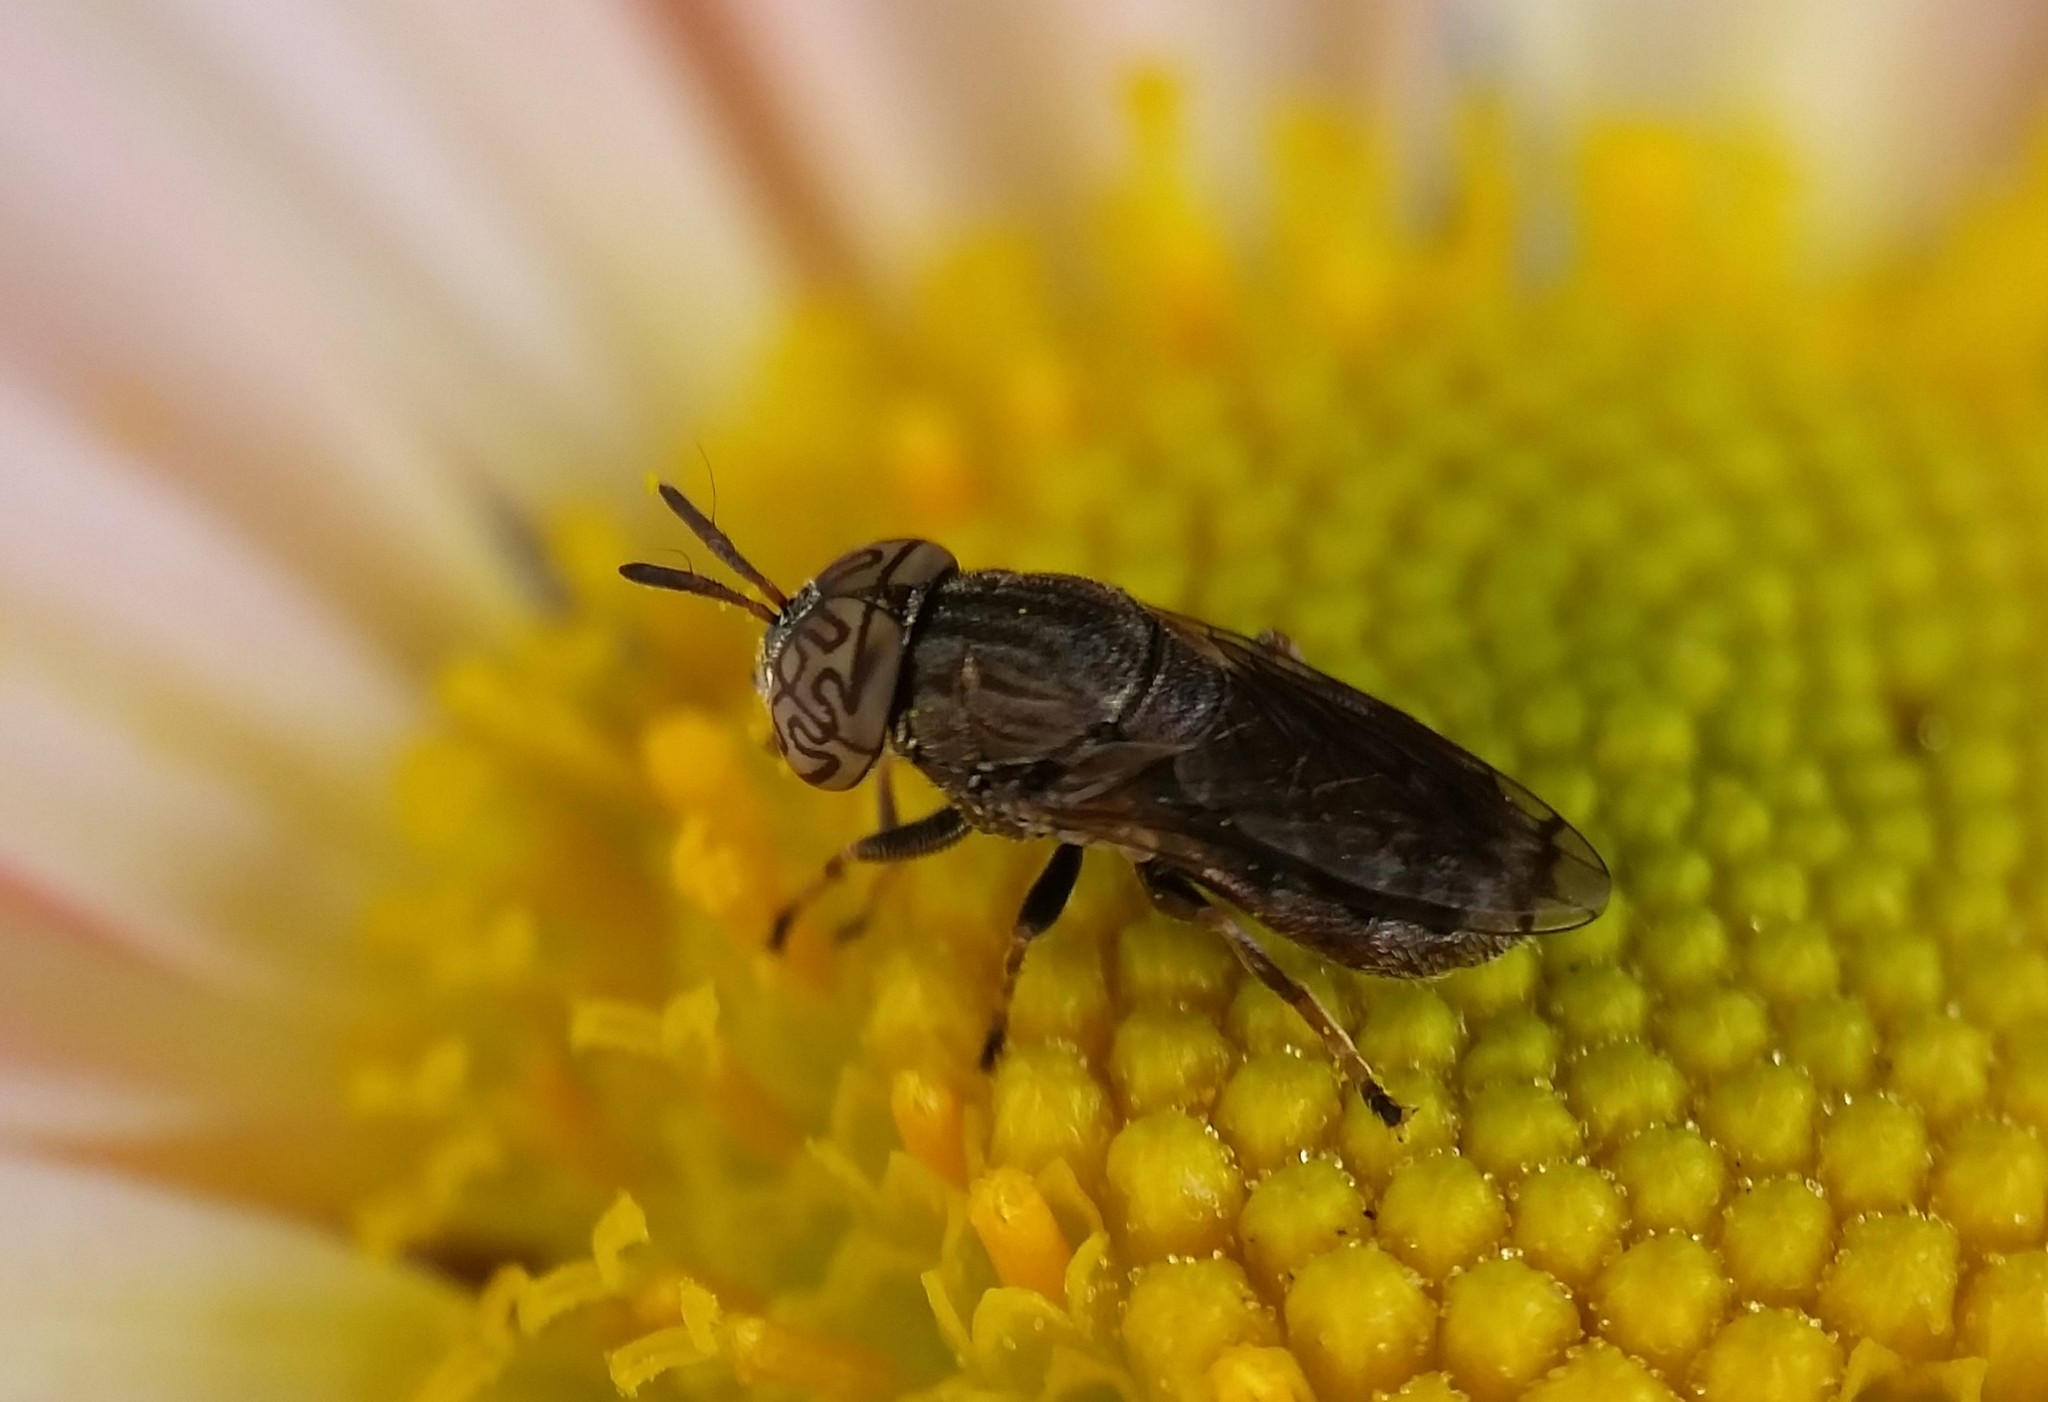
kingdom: Animalia
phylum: Arthropoda
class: Insecta
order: Diptera
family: Syrphidae
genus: Orthonevra
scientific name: Orthonevra nitida
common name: Wavy mucksucker
